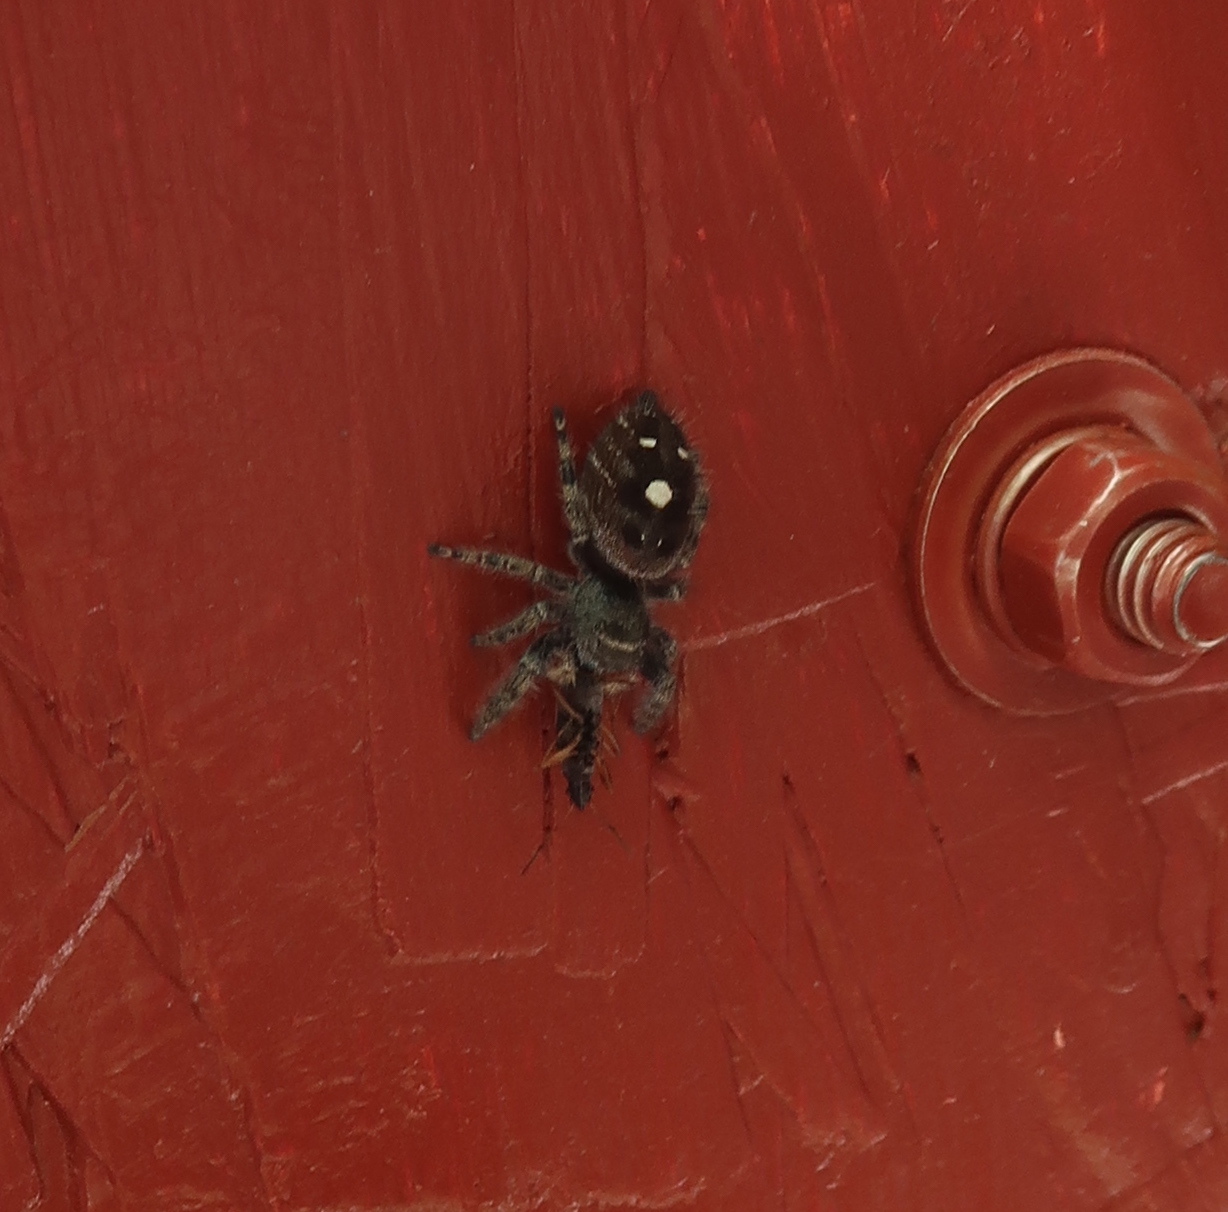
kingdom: Animalia
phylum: Arthropoda
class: Arachnida
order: Araneae
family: Salticidae
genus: Phidippus
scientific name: Phidippus audax
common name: Bold jumper
